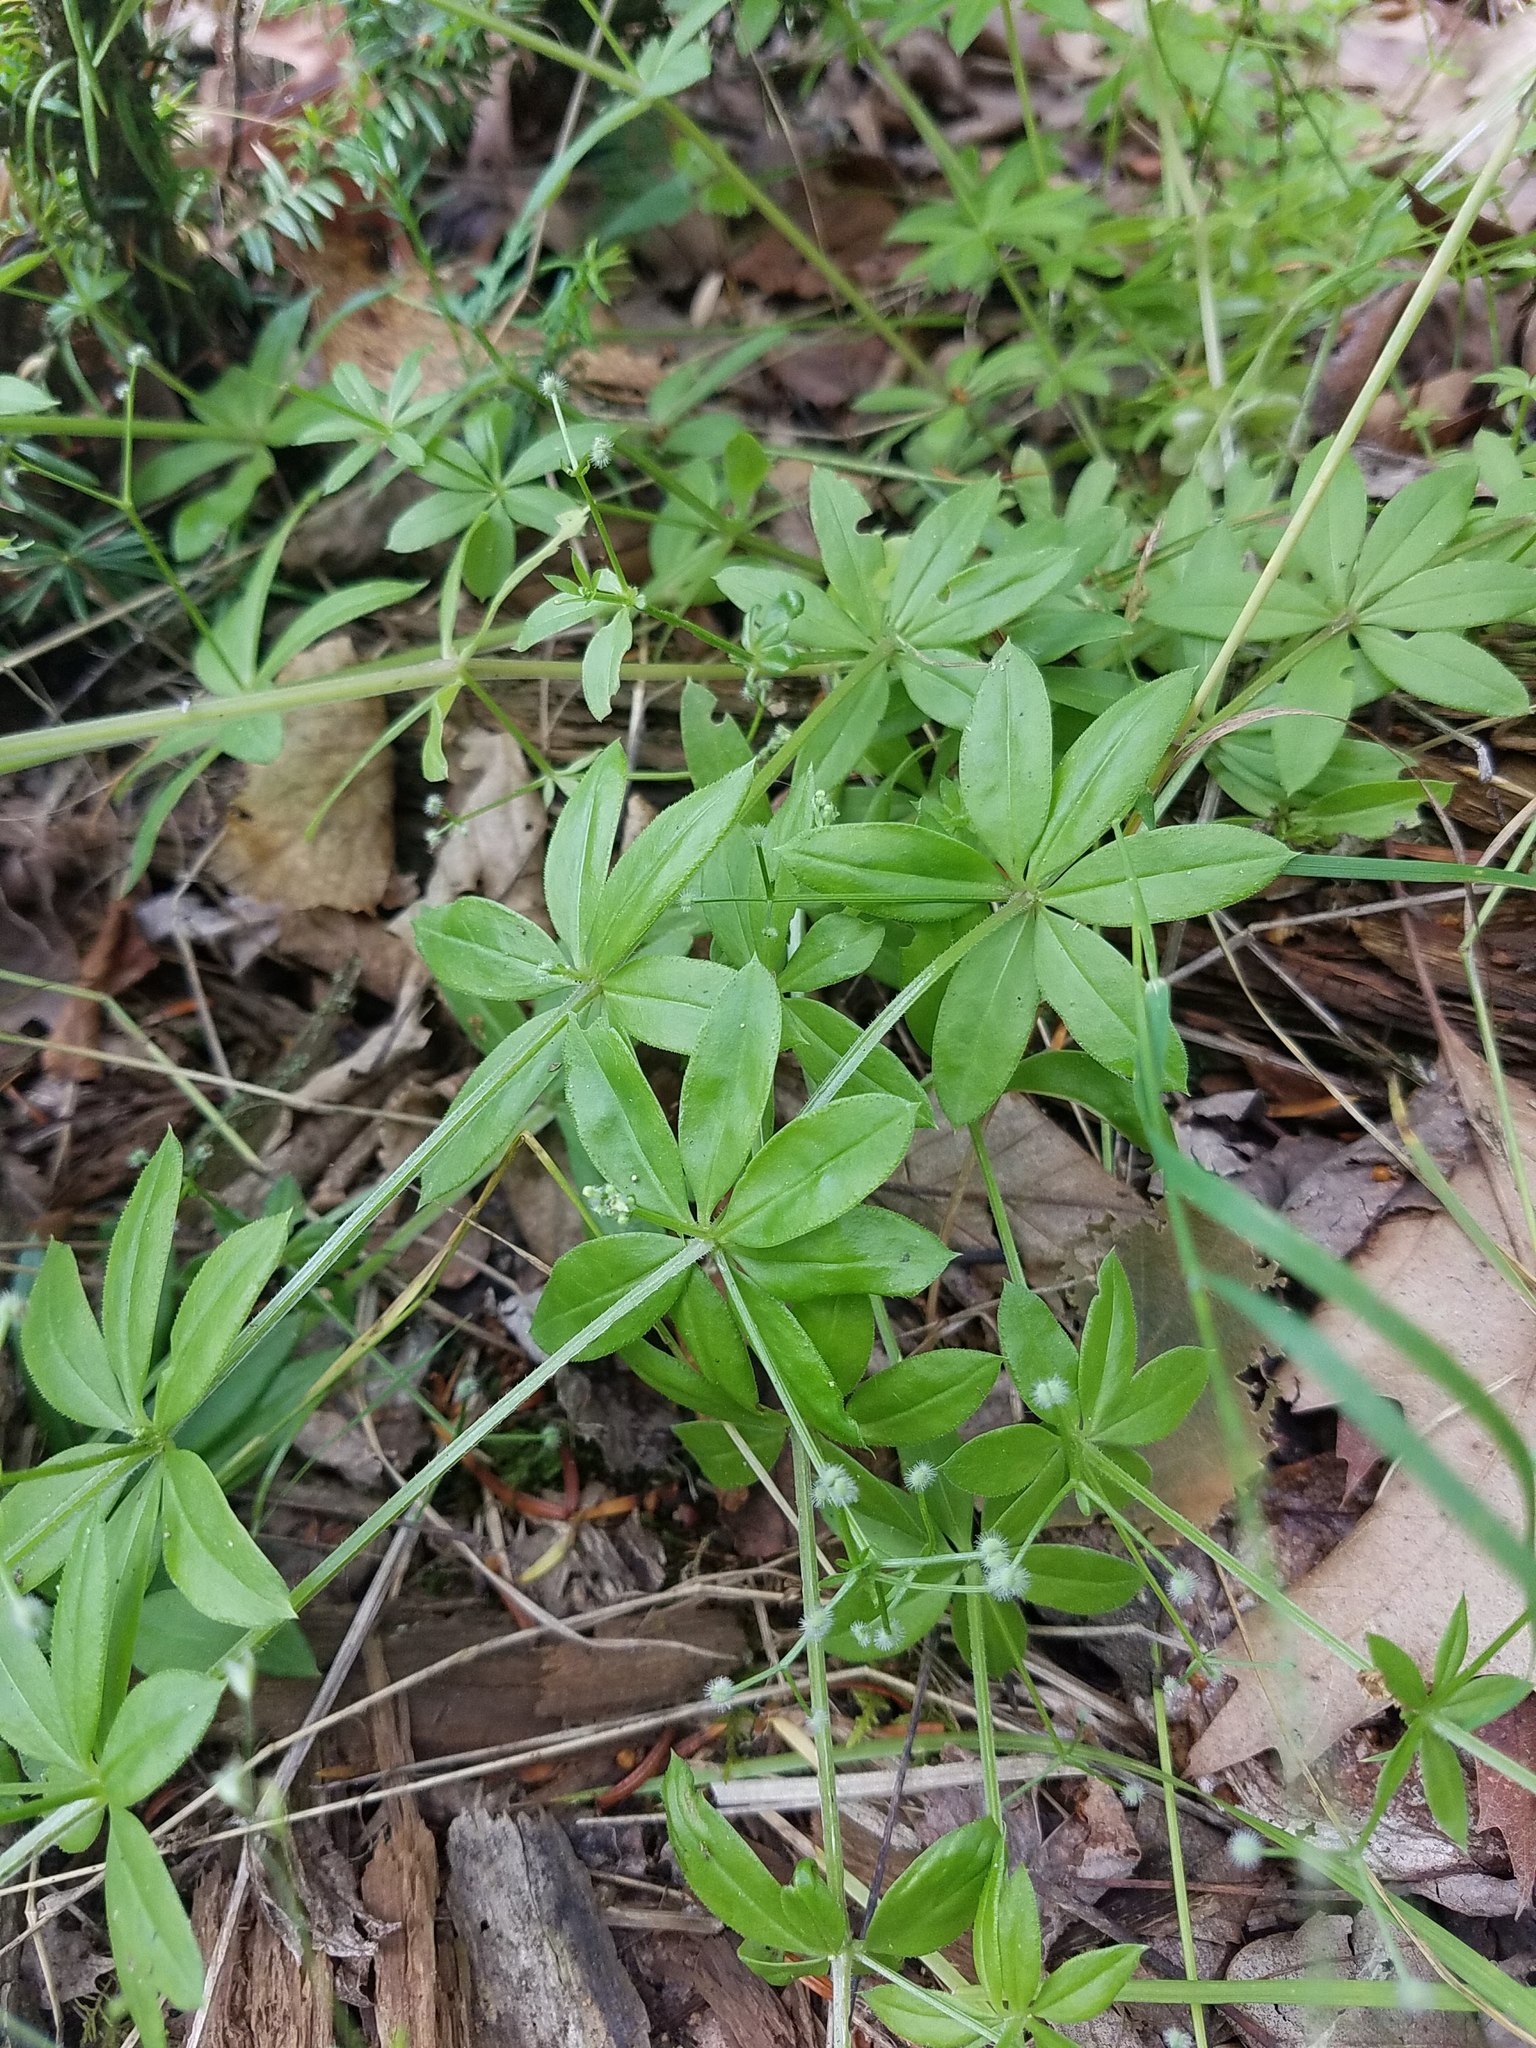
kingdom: Plantae
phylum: Tracheophyta
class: Magnoliopsida
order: Gentianales
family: Rubiaceae
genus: Galium
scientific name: Galium triflorum
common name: Fragrant bedstraw
